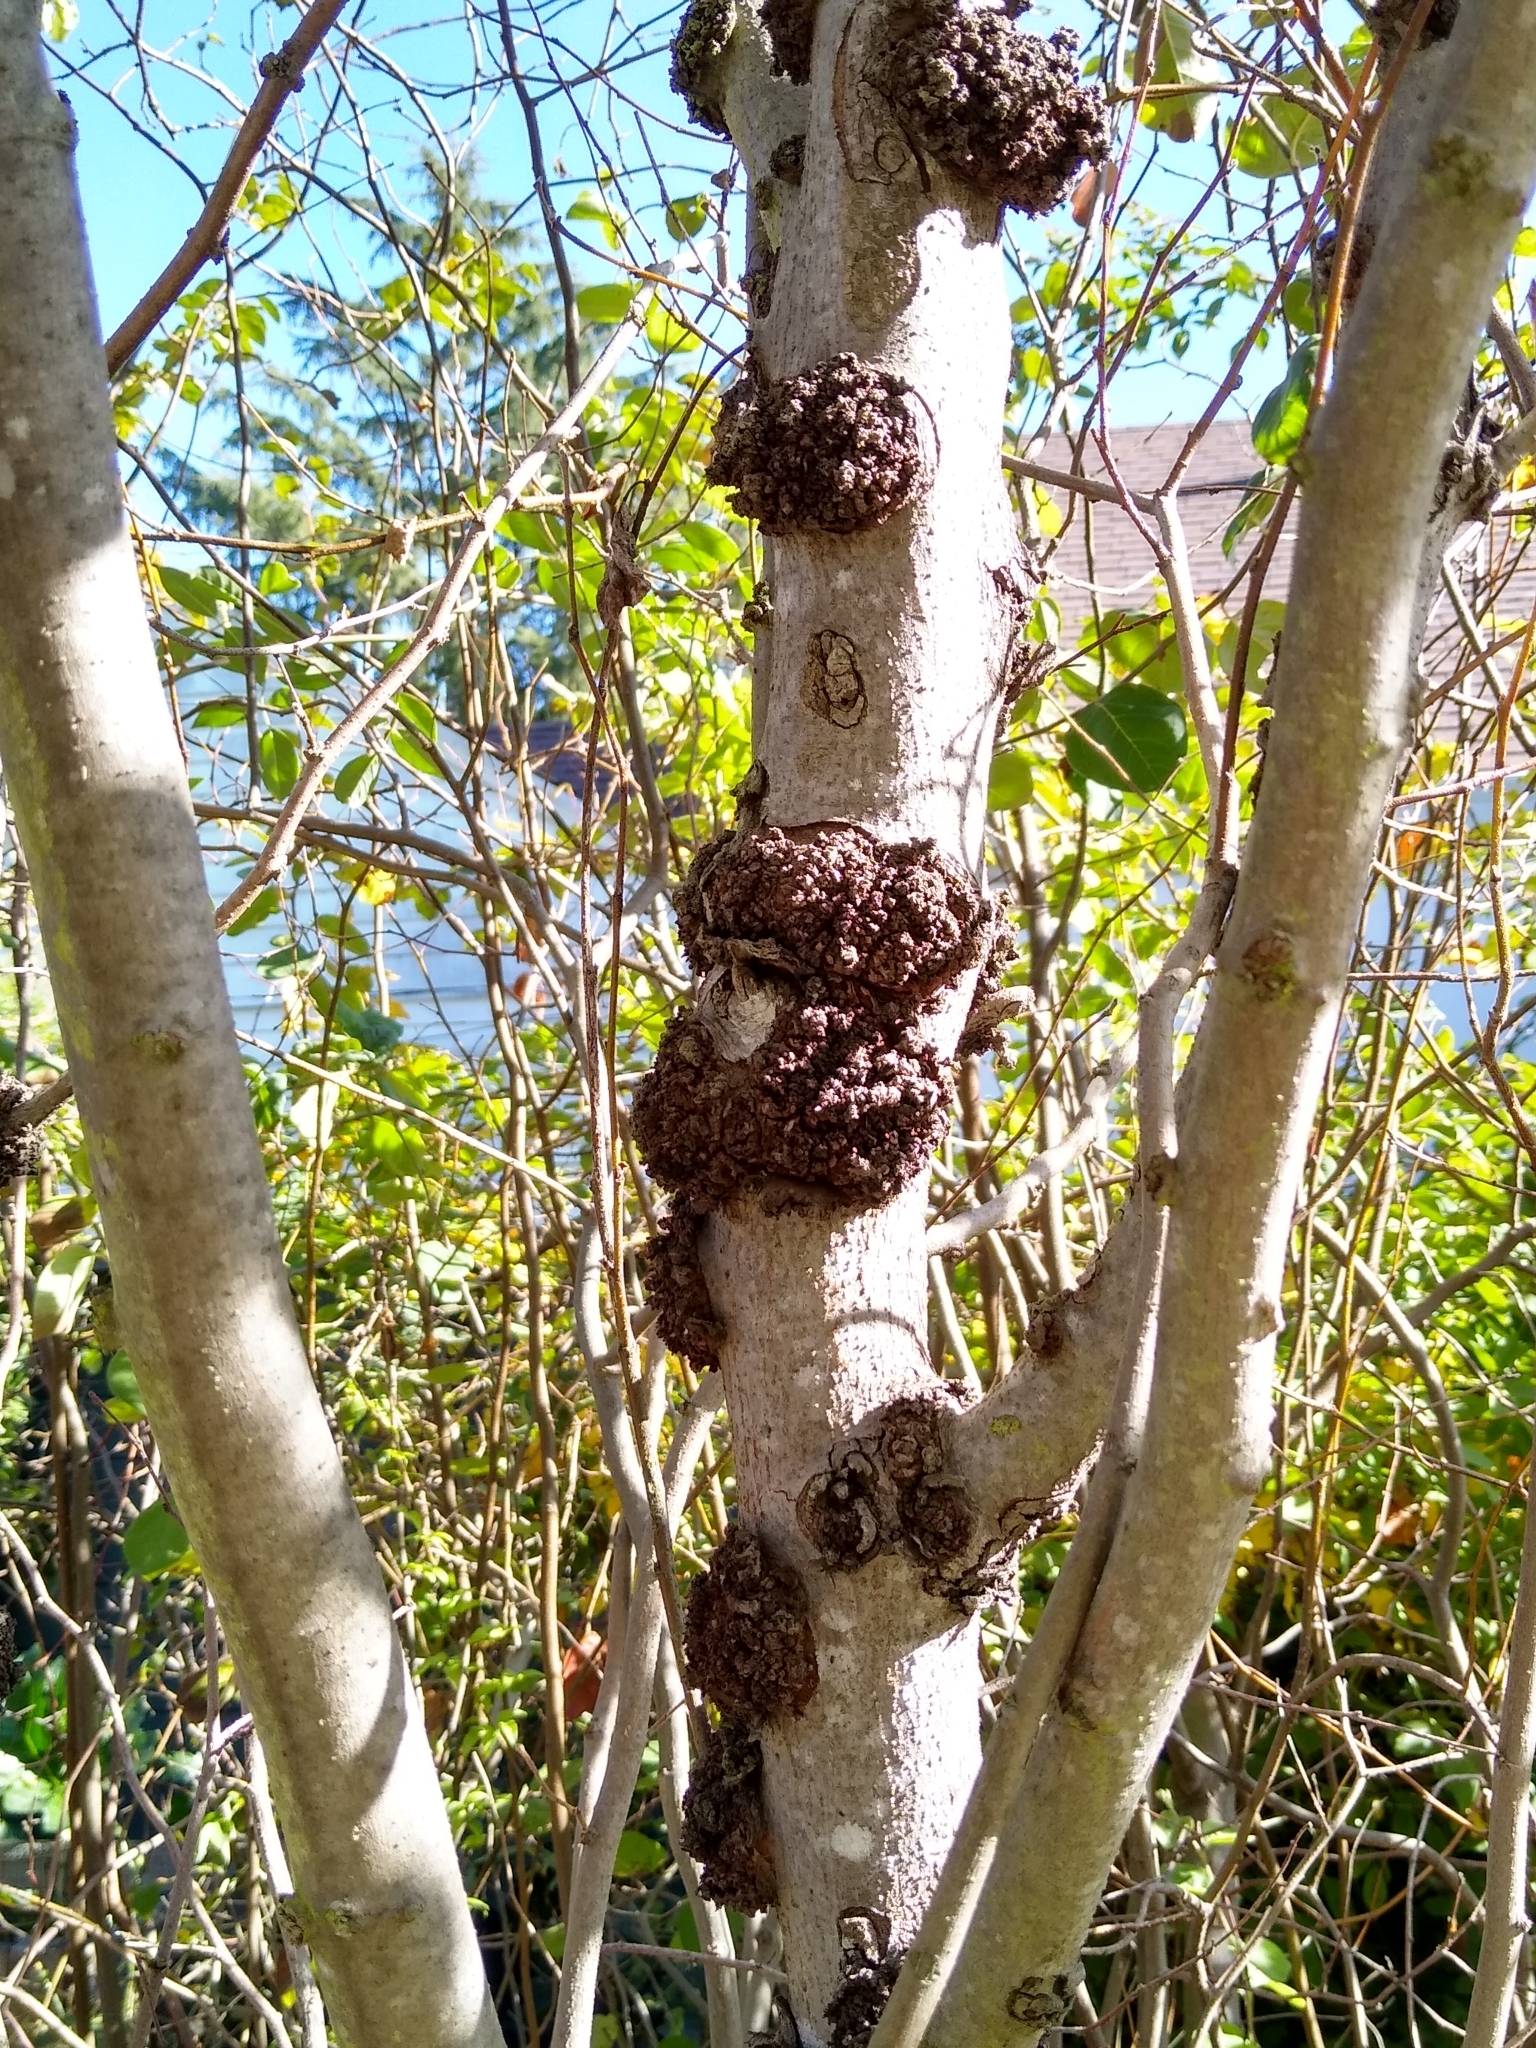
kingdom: Bacteria
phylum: Proteobacteria
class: Alphaproteobacteria
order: Rhizobiales
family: Rhizobiaceae
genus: Rhizobium
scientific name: Rhizobium Agrobacterium radiobacter
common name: Bacterial crown gall
